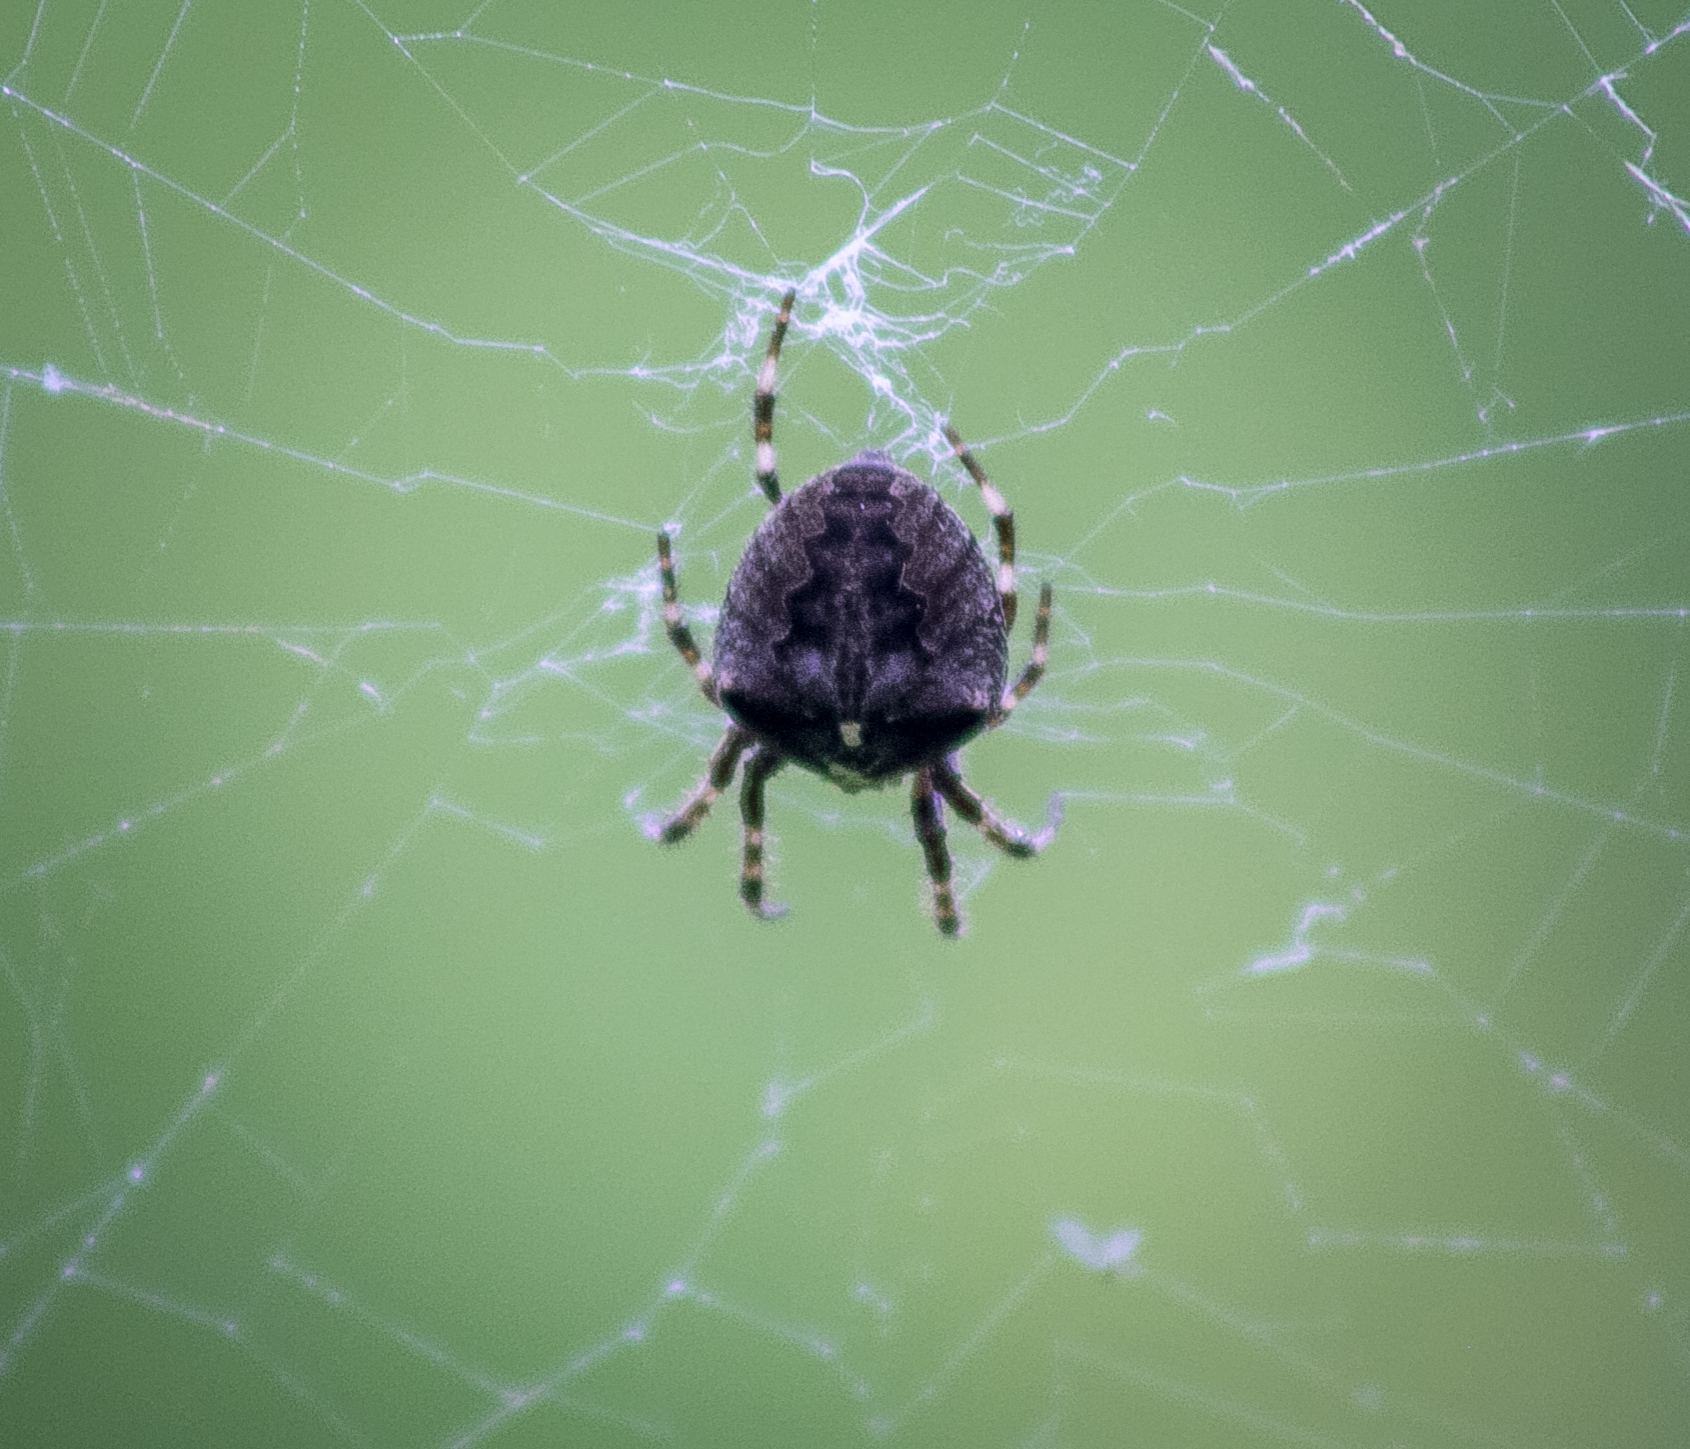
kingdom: Animalia
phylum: Arthropoda
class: Arachnida
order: Araneae
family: Araneidae
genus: Araneus
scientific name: Araneus angulatus
